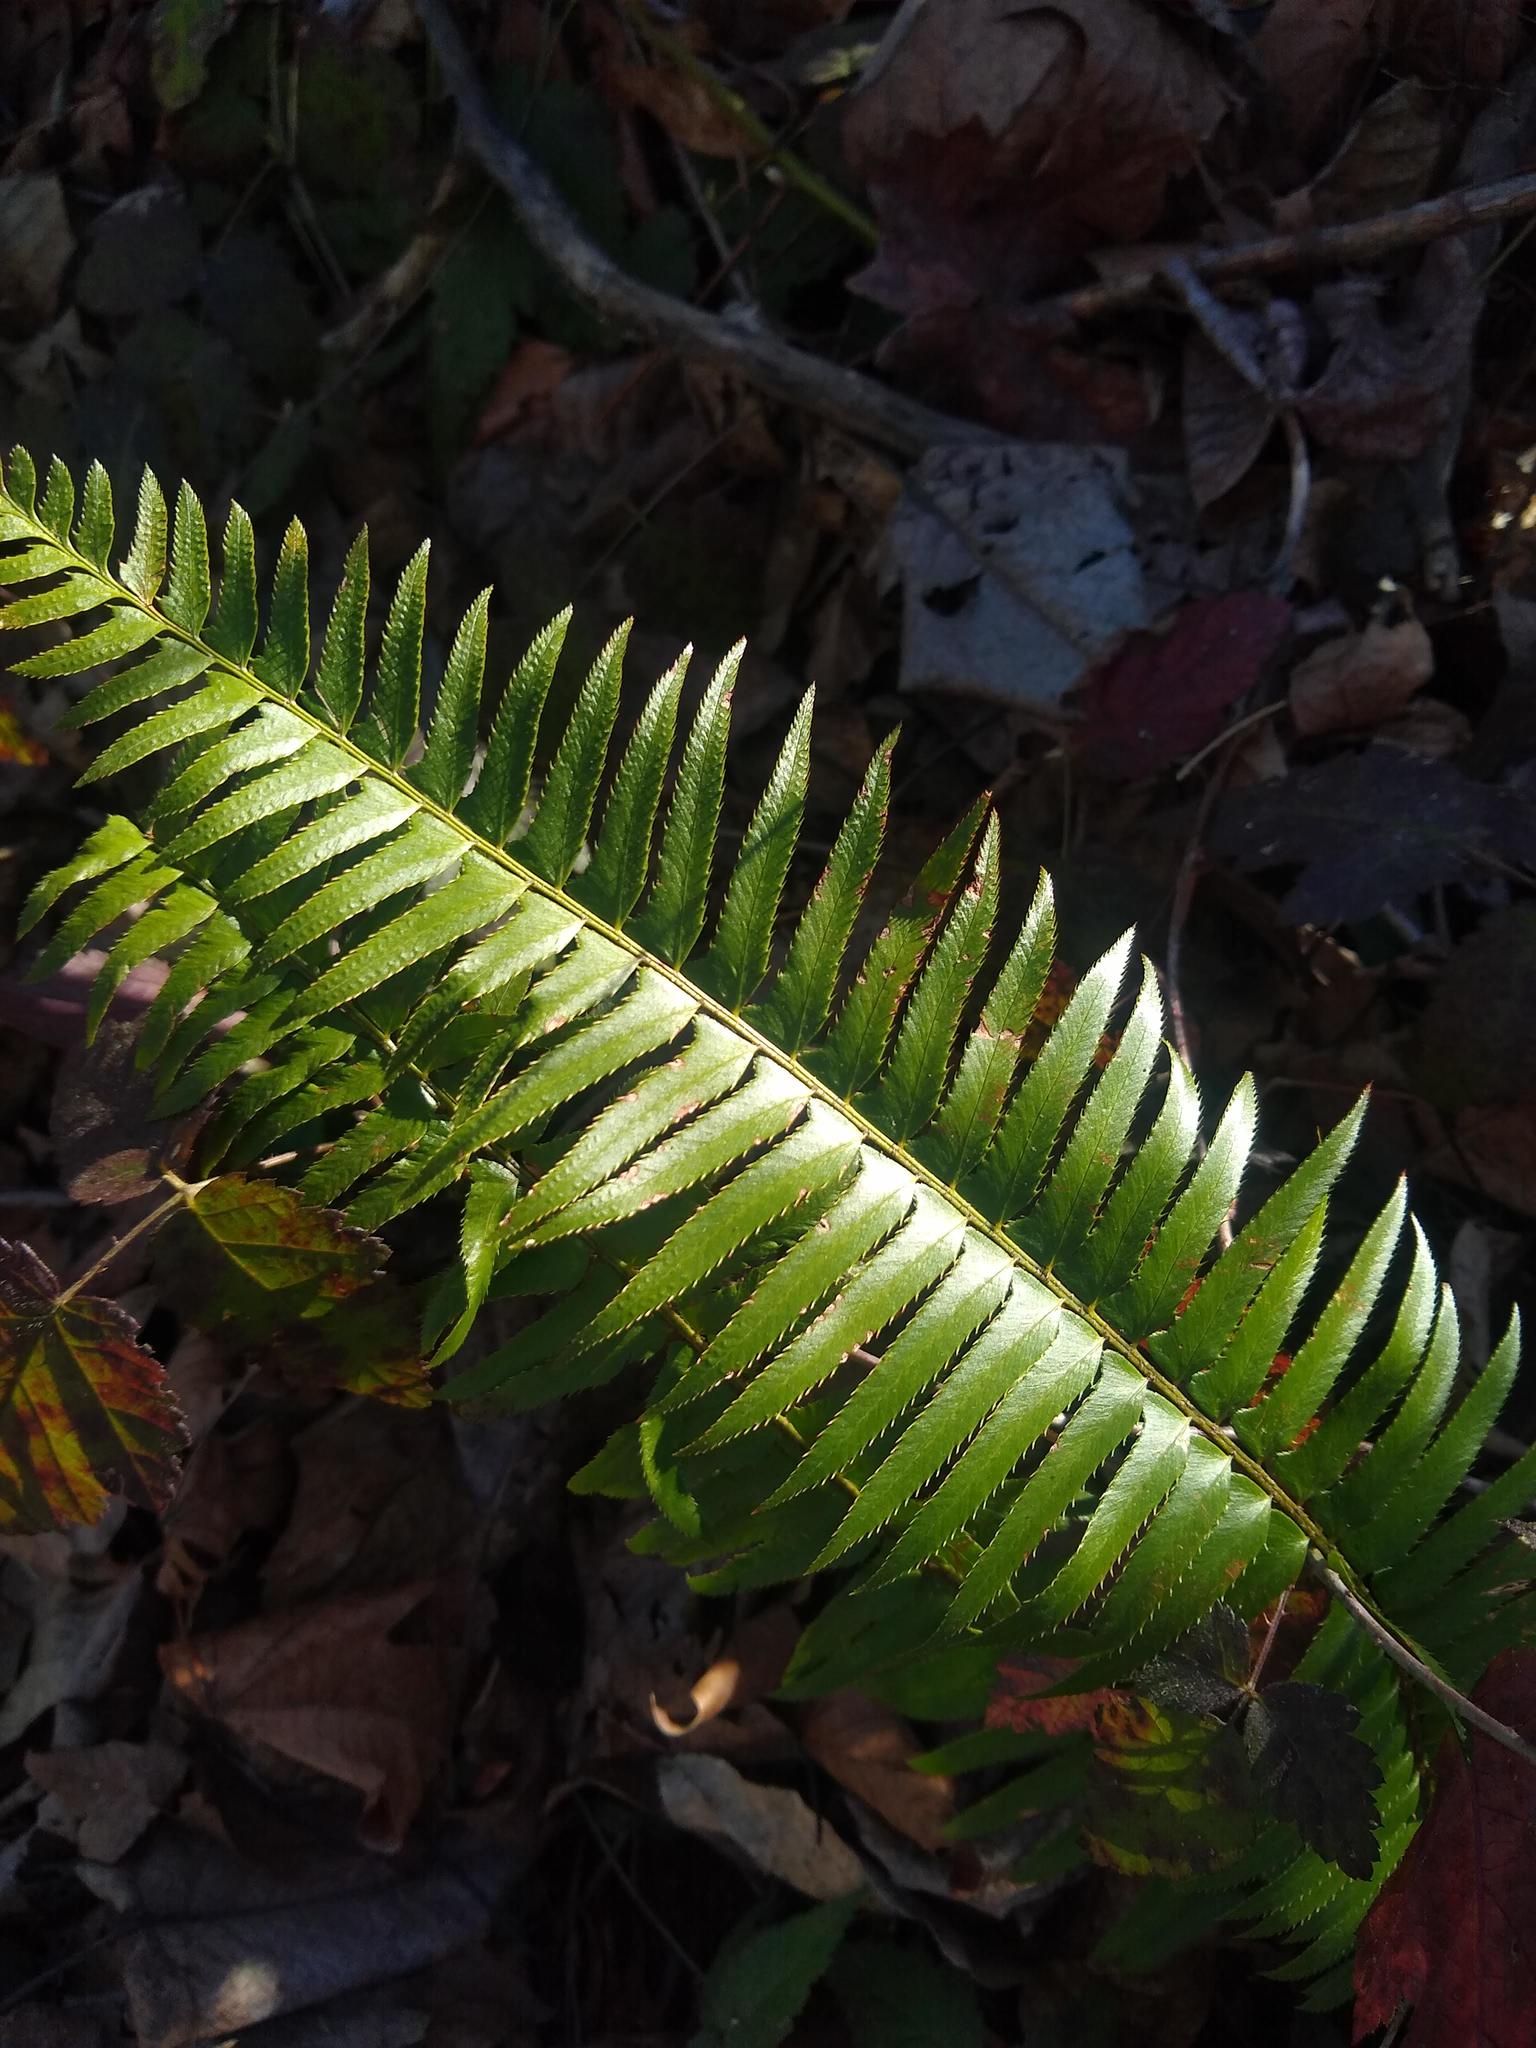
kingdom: Plantae
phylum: Tracheophyta
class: Polypodiopsida
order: Polypodiales
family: Dryopteridaceae
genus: Polystichum
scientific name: Polystichum munitum
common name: Western sword-fern
